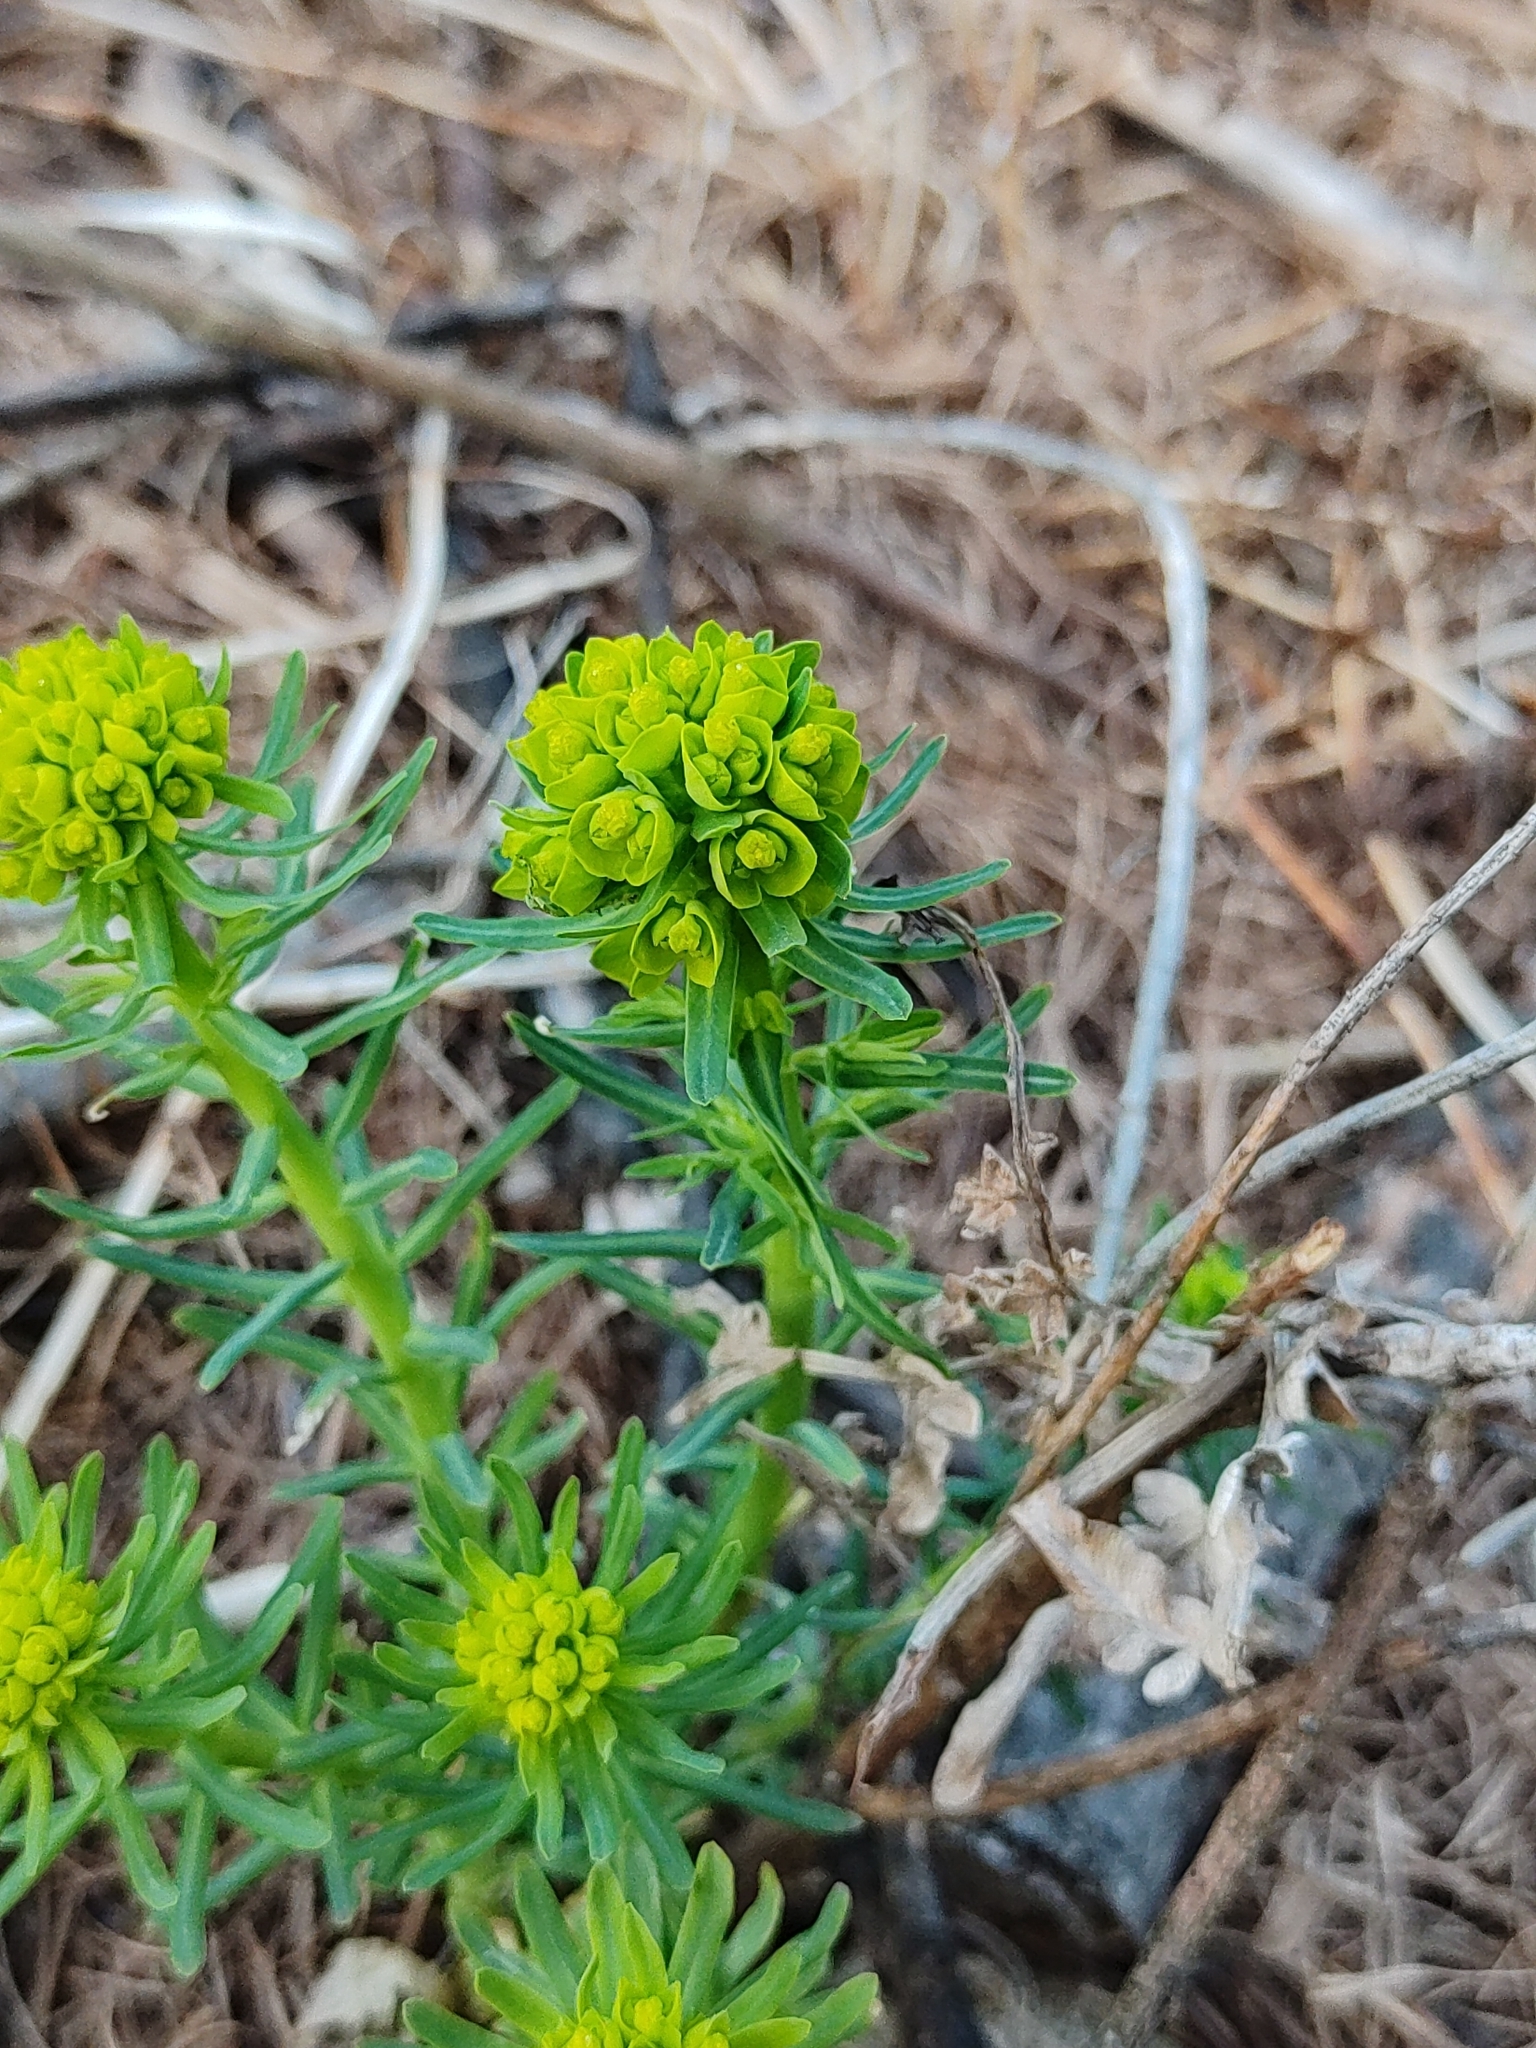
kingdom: Plantae
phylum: Tracheophyta
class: Magnoliopsida
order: Malpighiales
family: Euphorbiaceae
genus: Euphorbia
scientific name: Euphorbia cyparissias
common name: Cypress spurge
